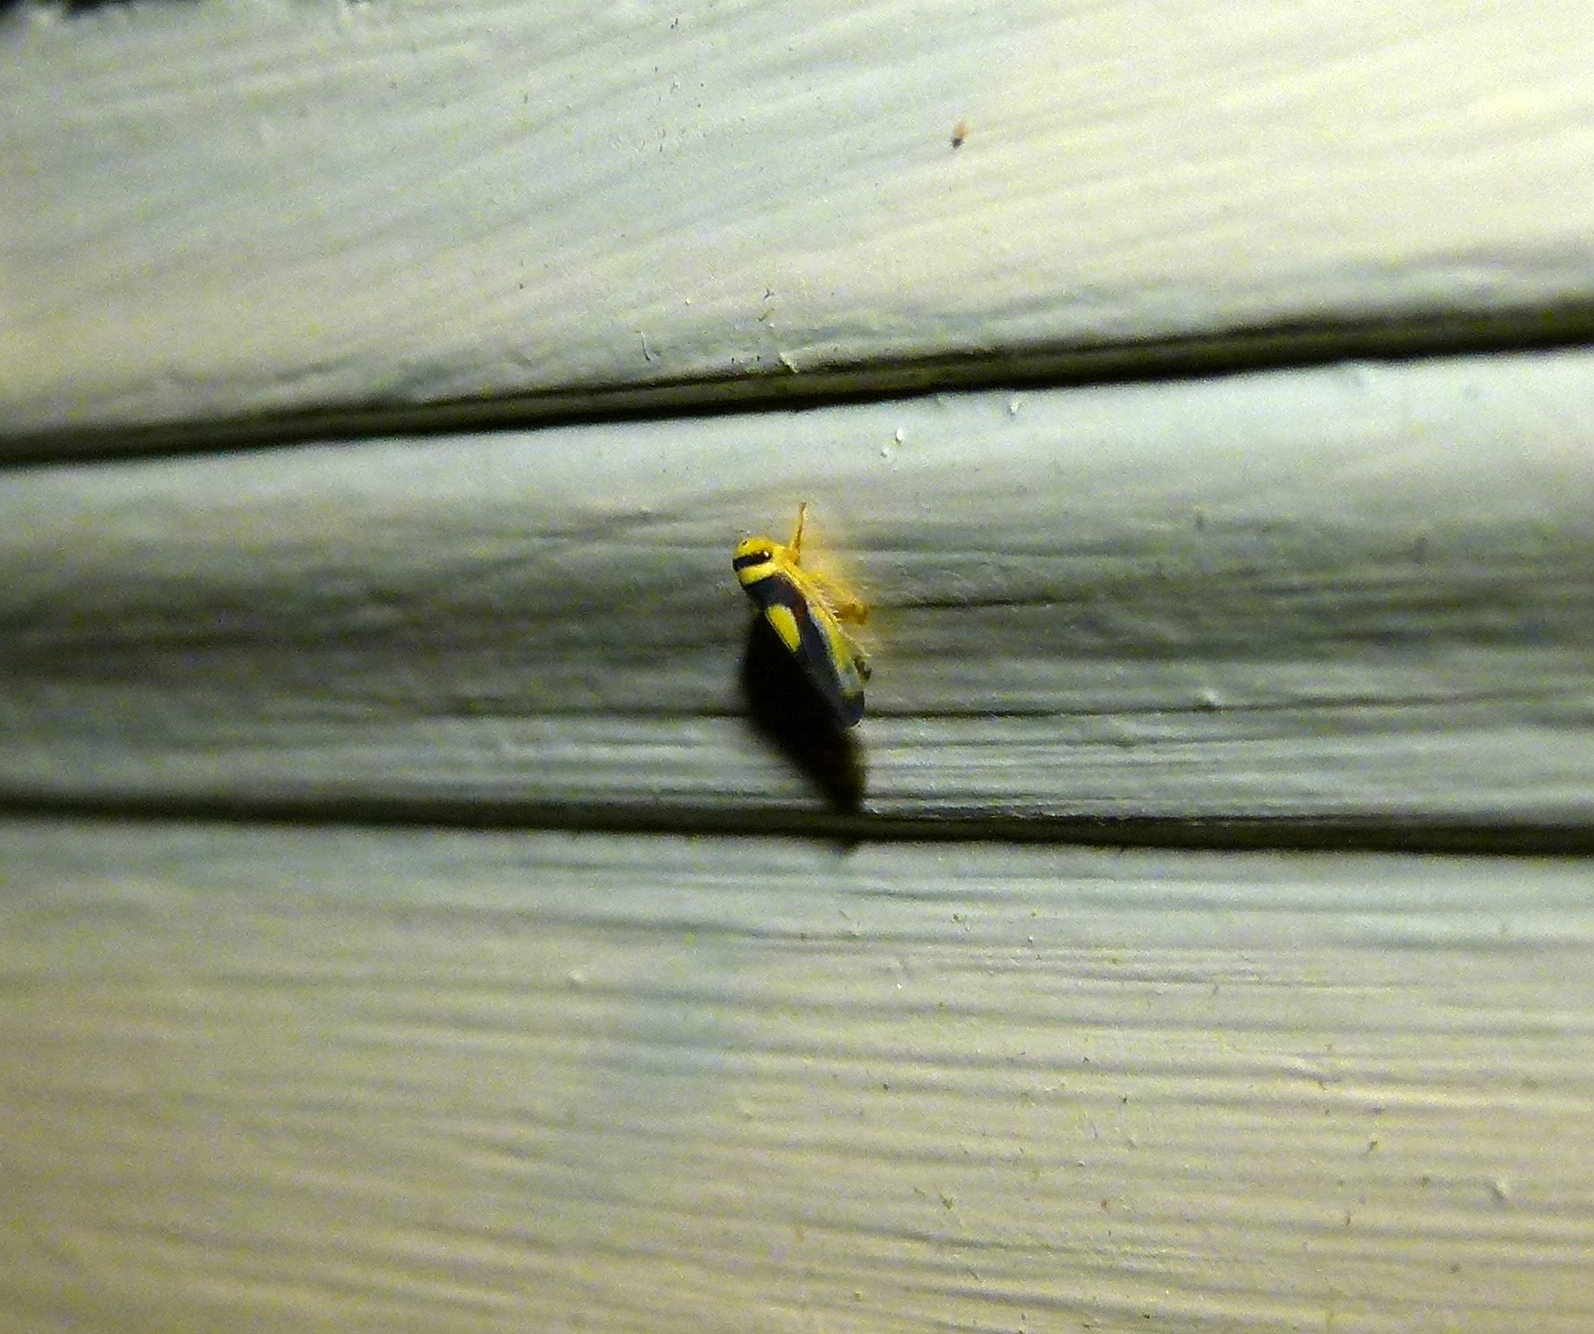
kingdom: Animalia
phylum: Arthropoda
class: Insecta
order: Hemiptera
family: Cicadellidae
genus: Colladonus
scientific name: Colladonus clitellarius
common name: The saddleback leafhopper
